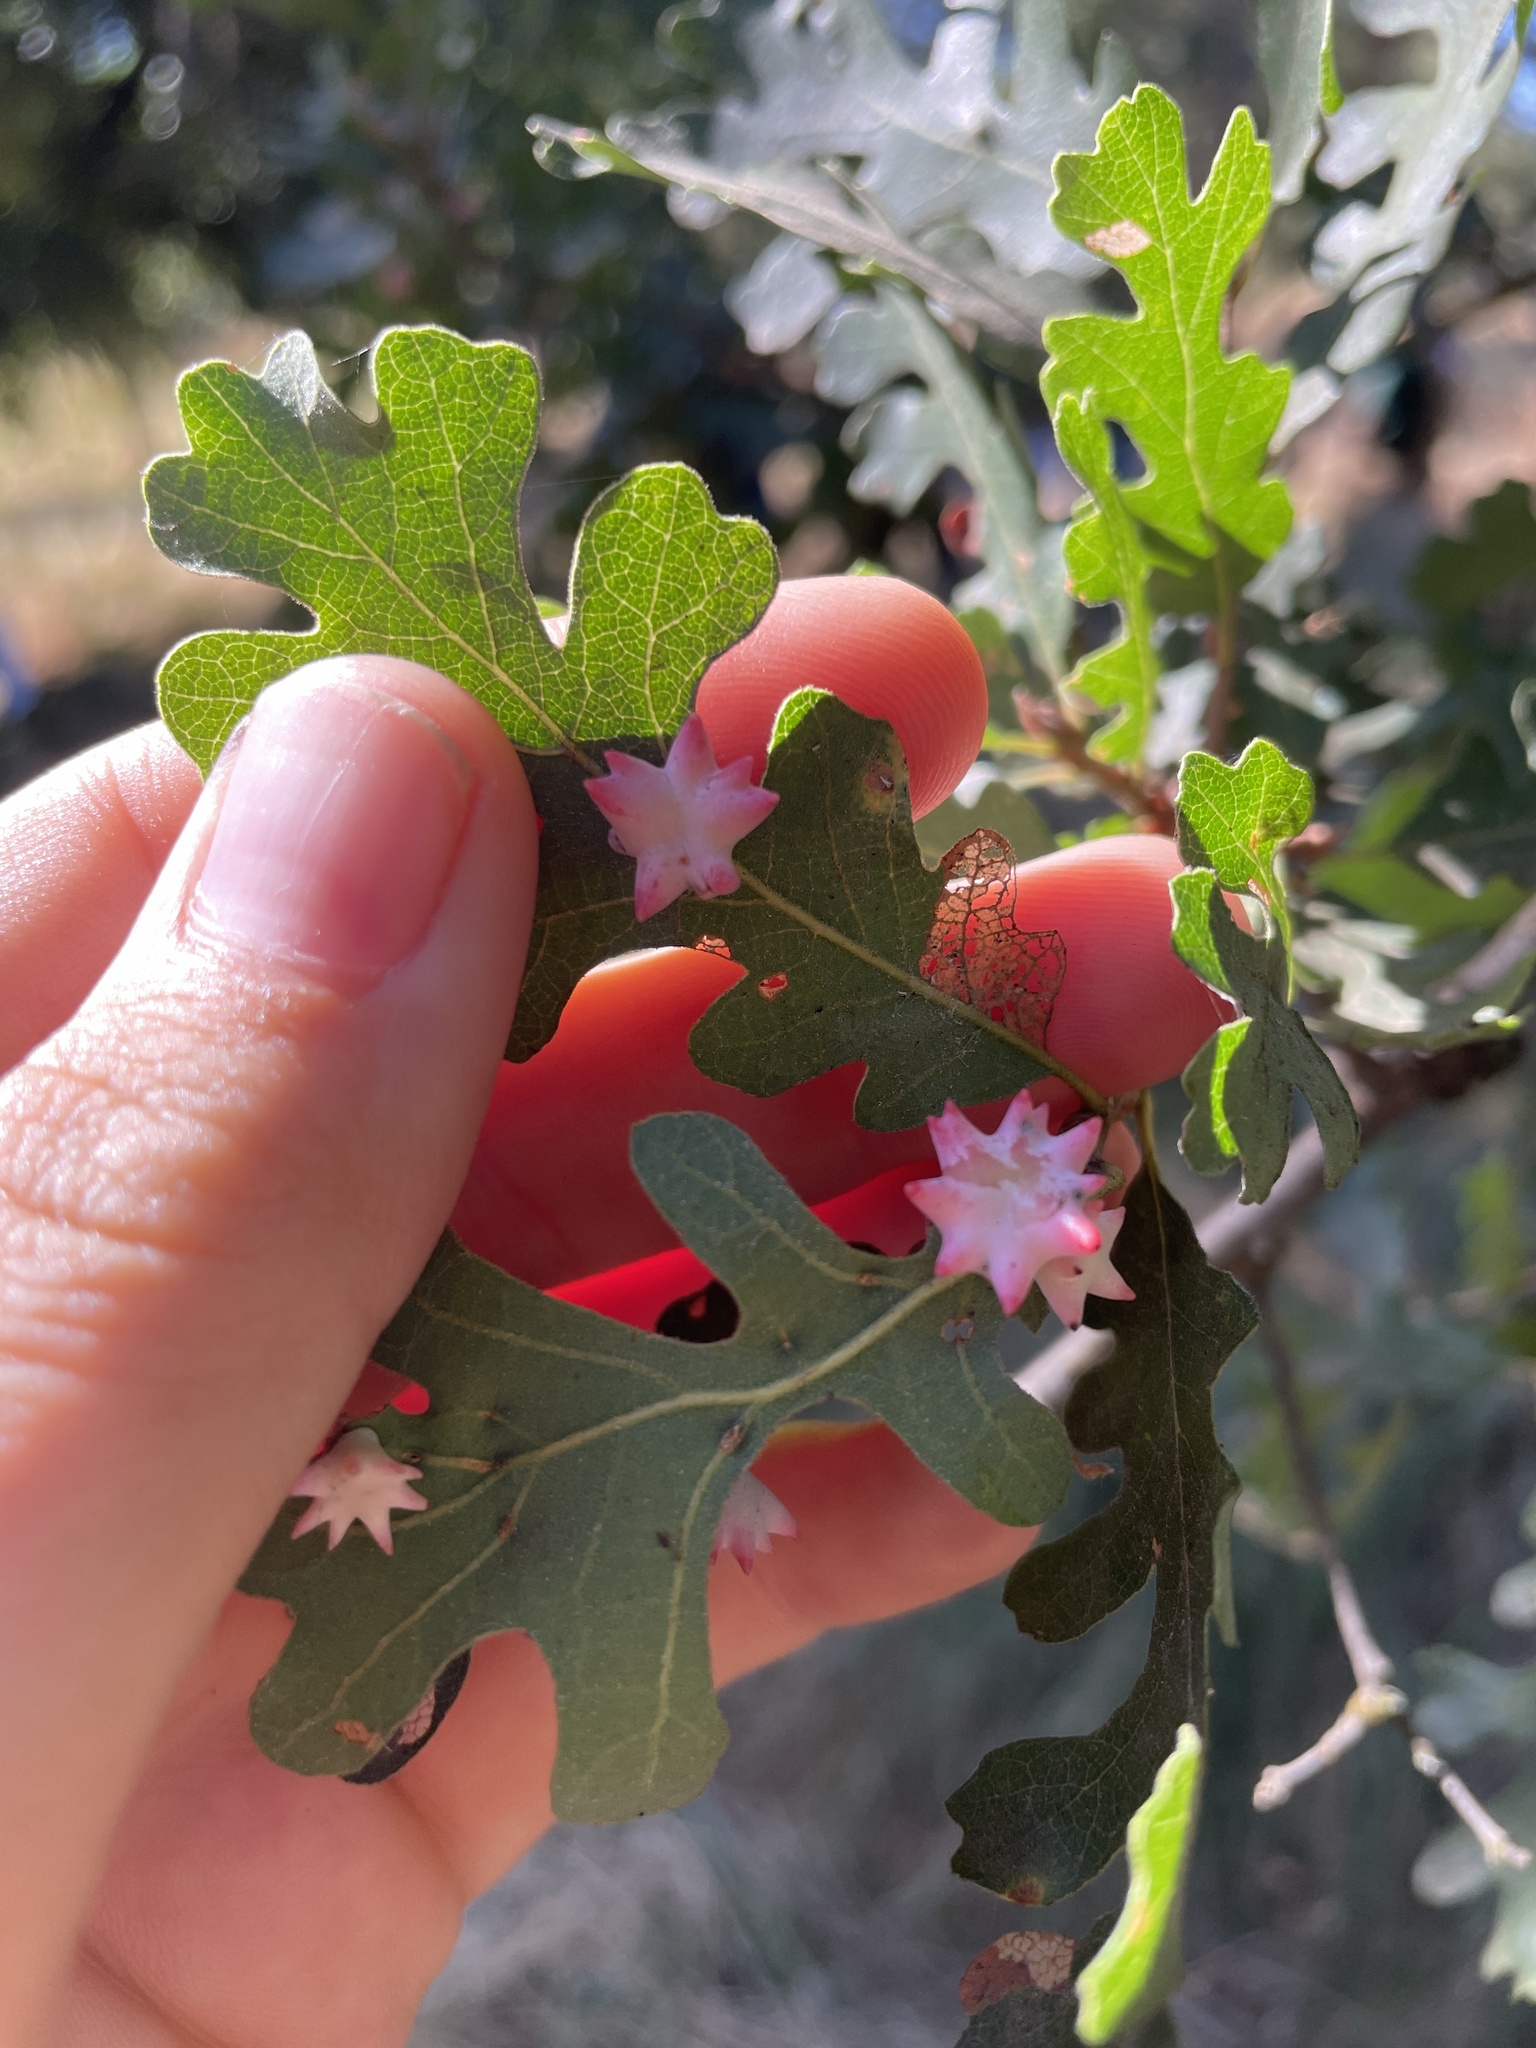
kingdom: Animalia
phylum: Arthropoda
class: Insecta
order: Hymenoptera
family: Cynipidae
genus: Cynips
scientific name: Cynips douglasi
